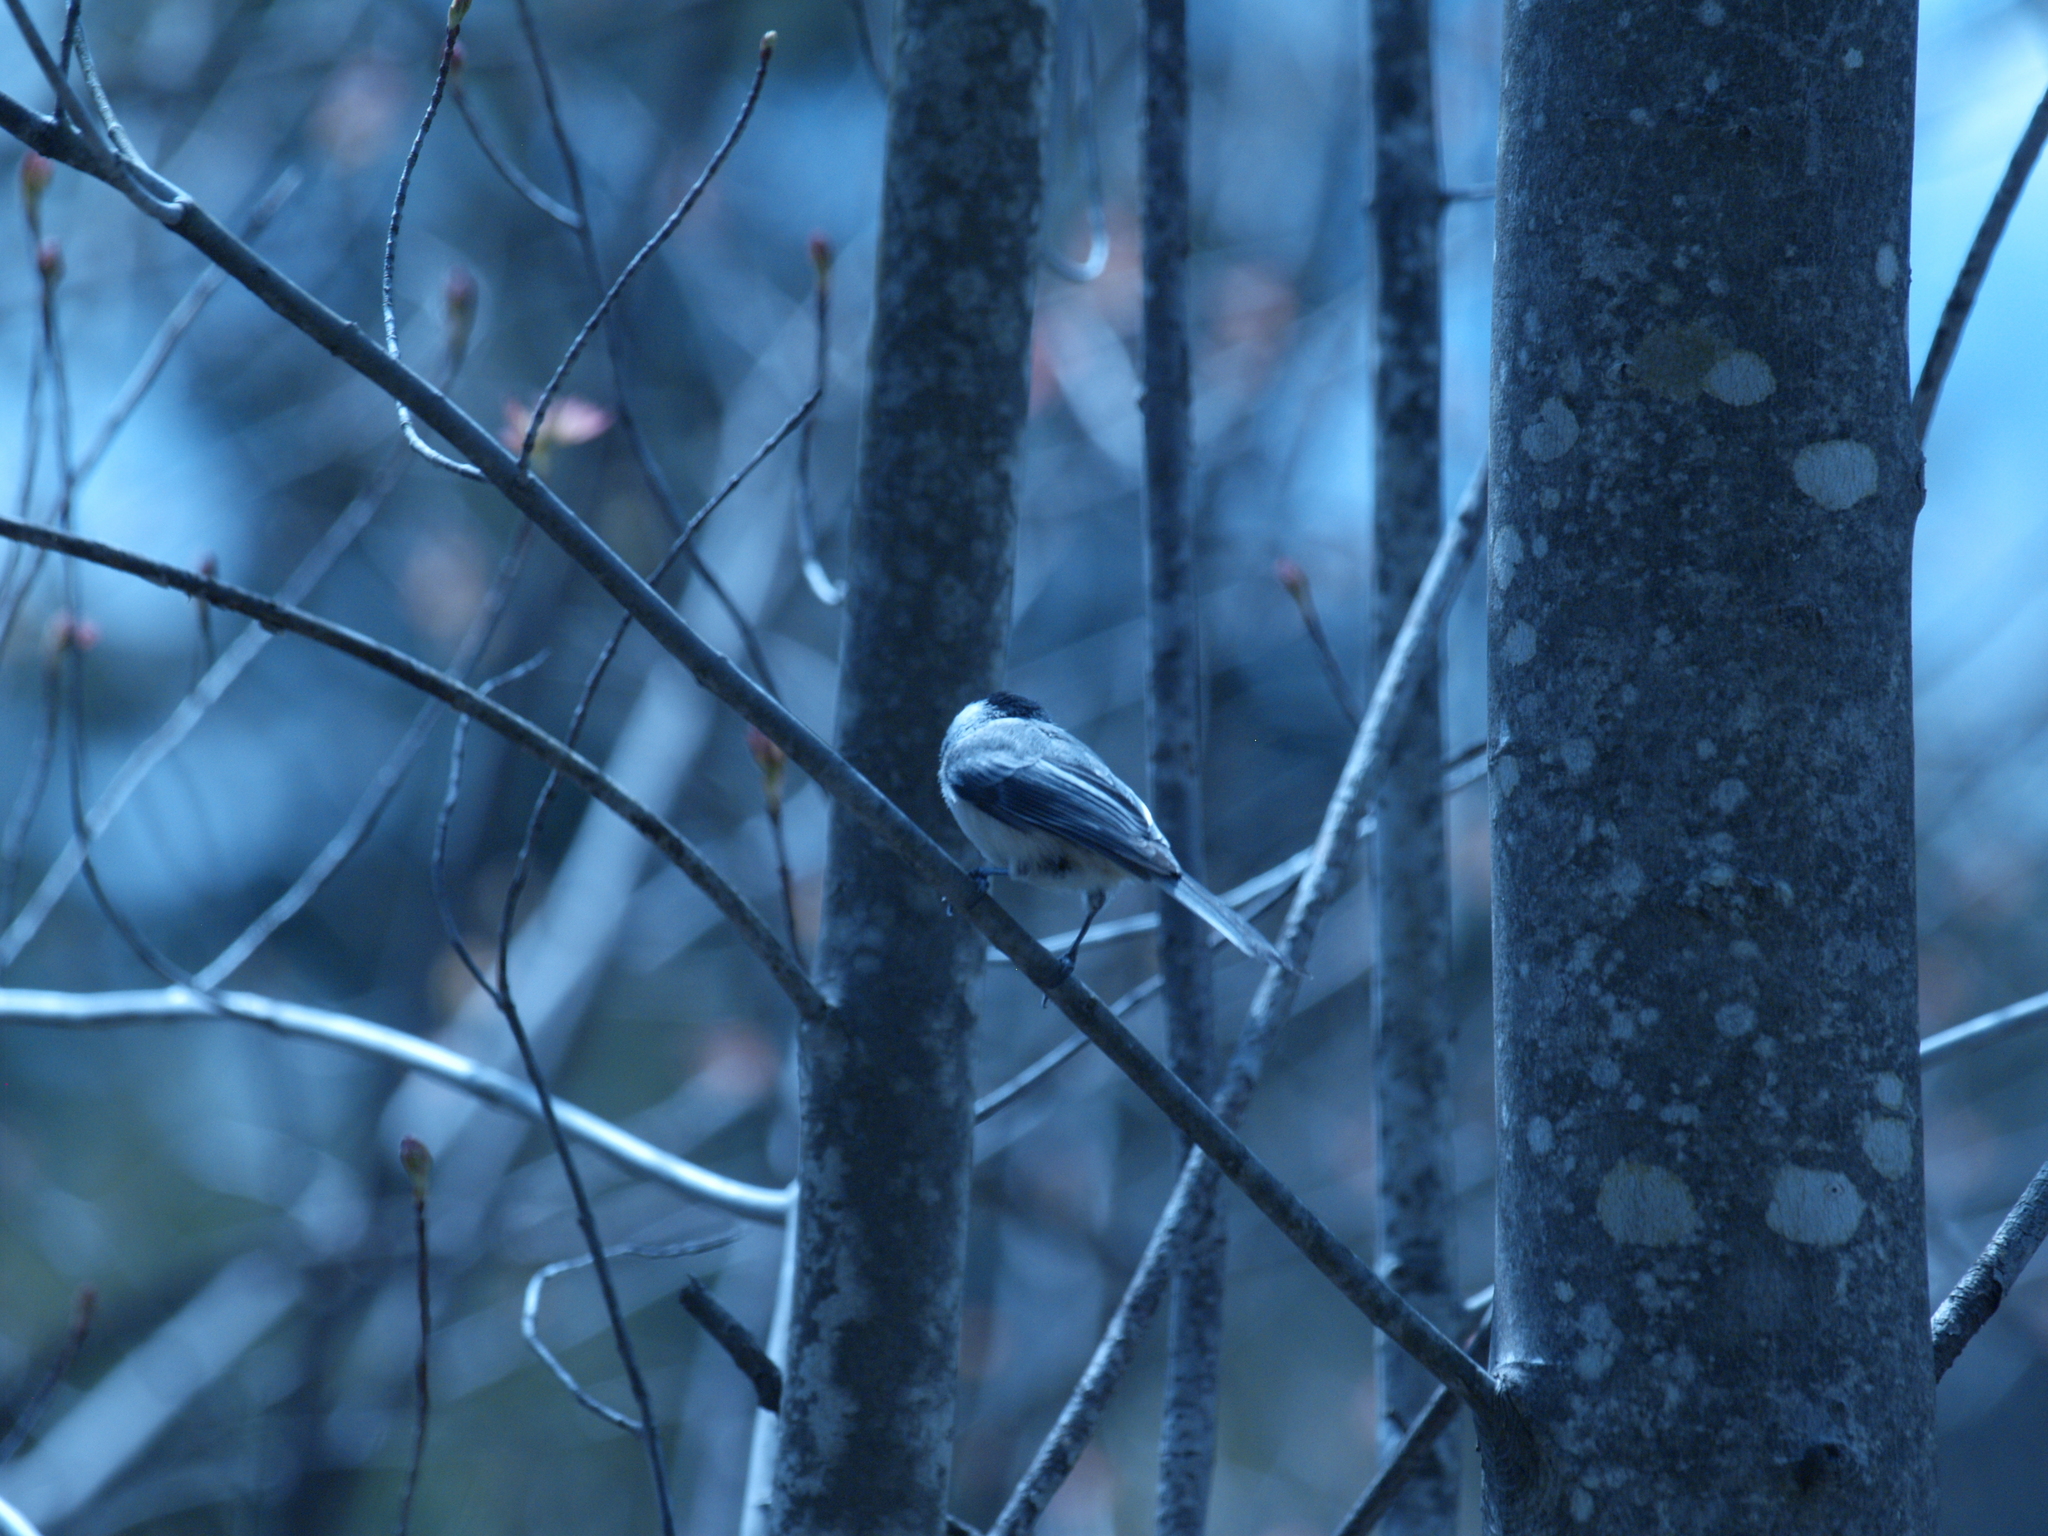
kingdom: Animalia
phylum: Chordata
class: Aves
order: Passeriformes
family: Paridae
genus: Poecile
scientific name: Poecile atricapillus
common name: Black-capped chickadee
